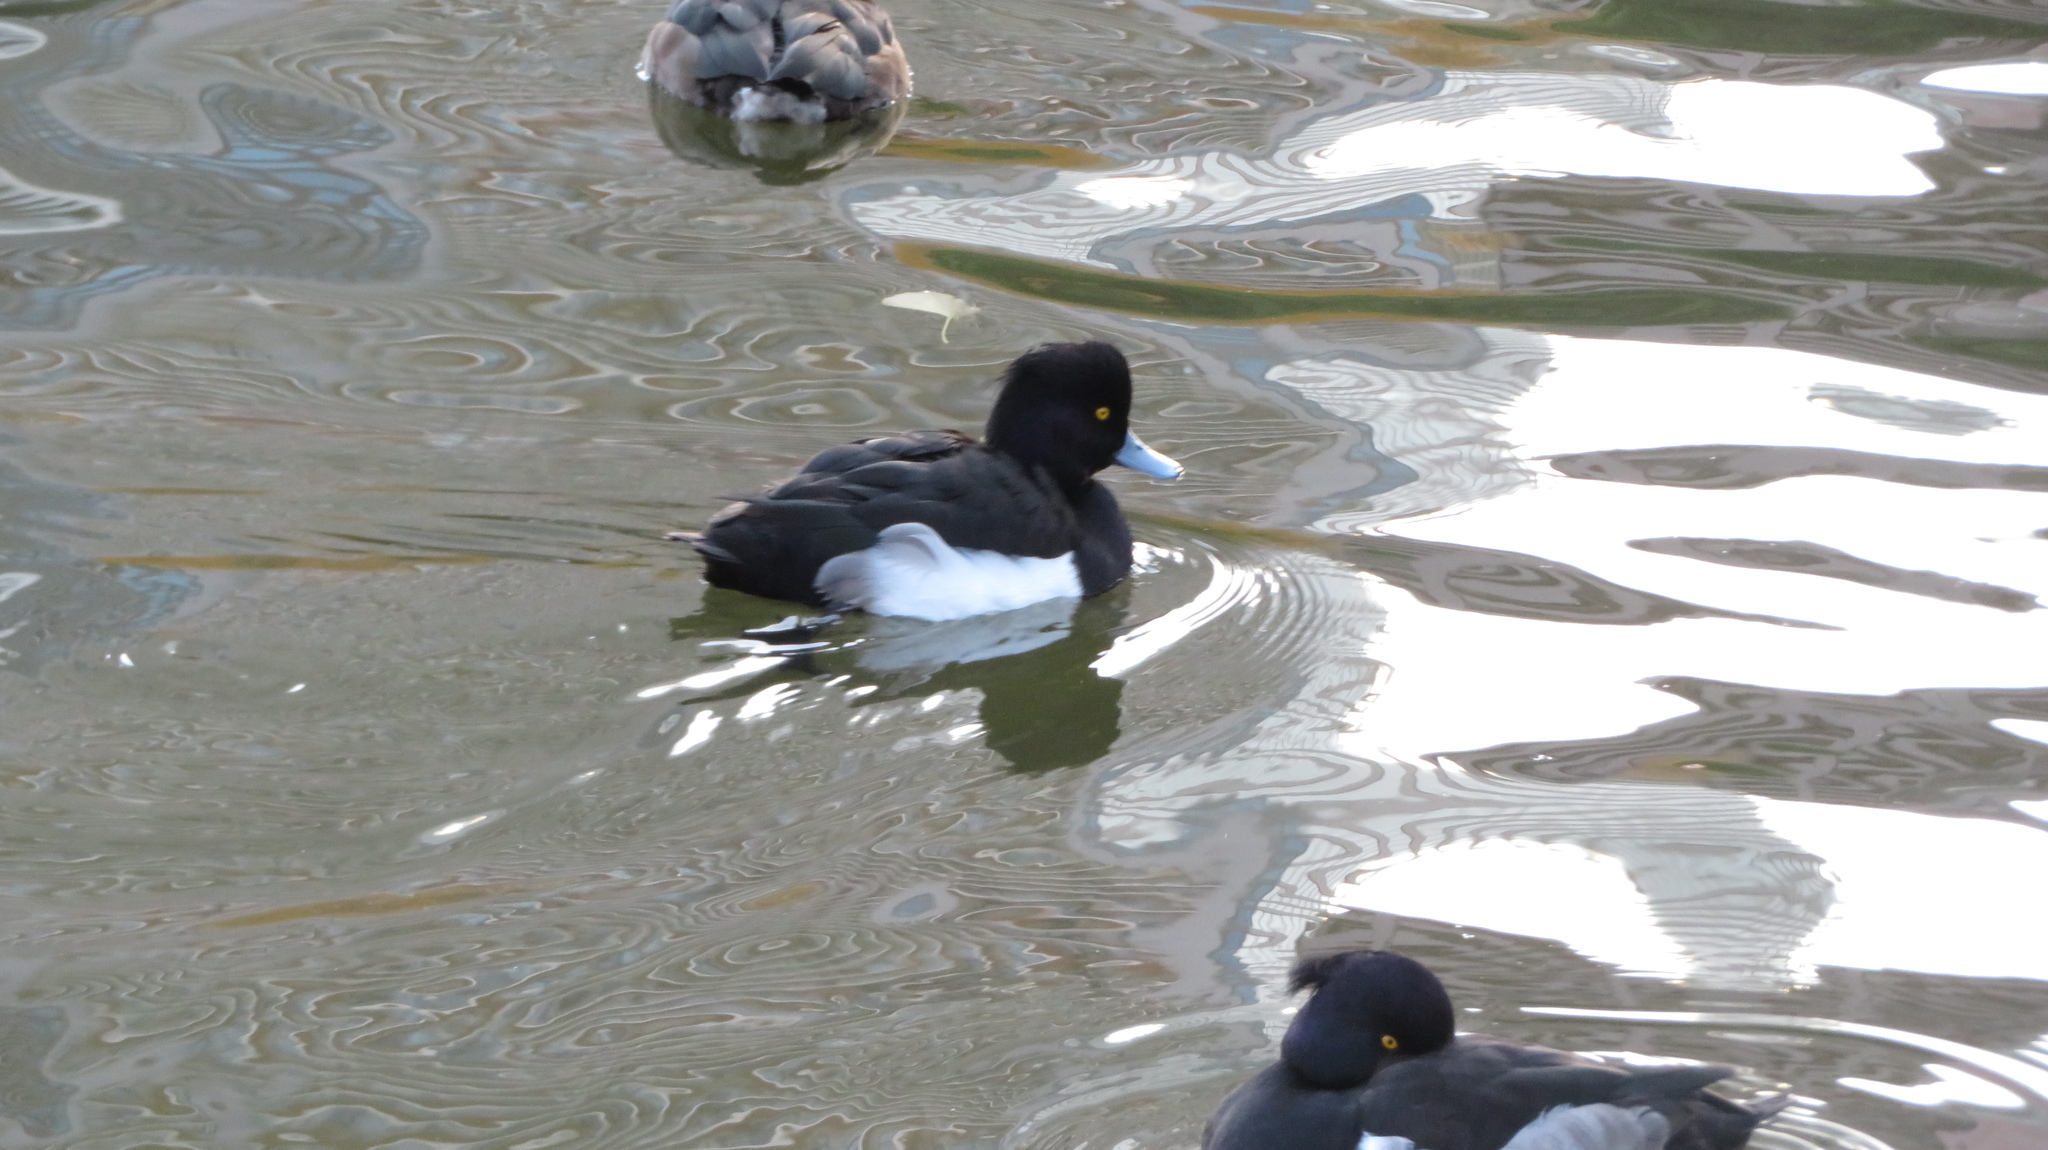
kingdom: Animalia
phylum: Chordata
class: Aves
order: Anseriformes
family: Anatidae
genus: Aythya
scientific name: Aythya fuligula
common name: Tufted duck
